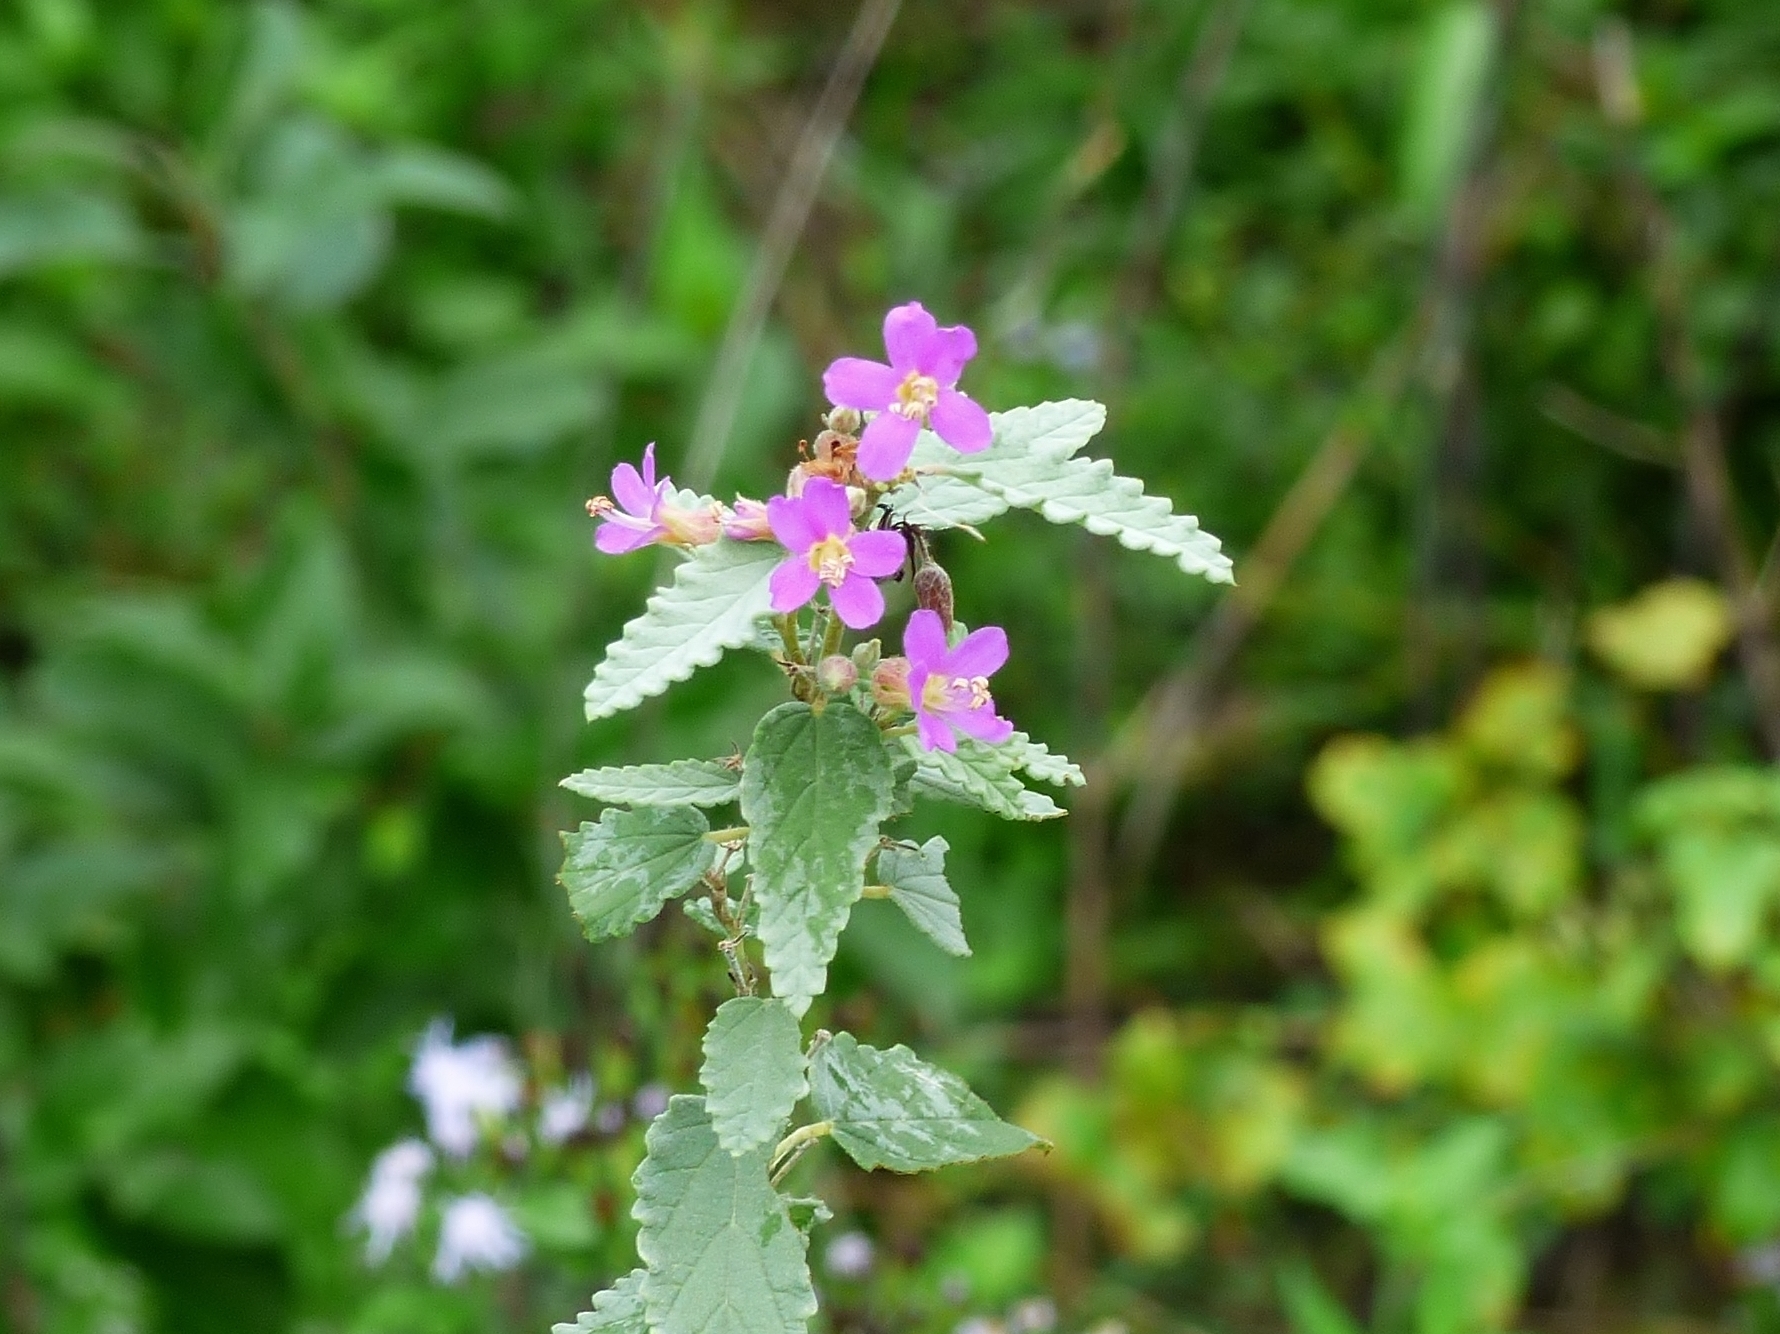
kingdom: Plantae
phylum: Tracheophyta
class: Magnoliopsida
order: Malvales
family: Malvaceae
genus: Melochia
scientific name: Melochia pyramidata
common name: Pyramidflower
